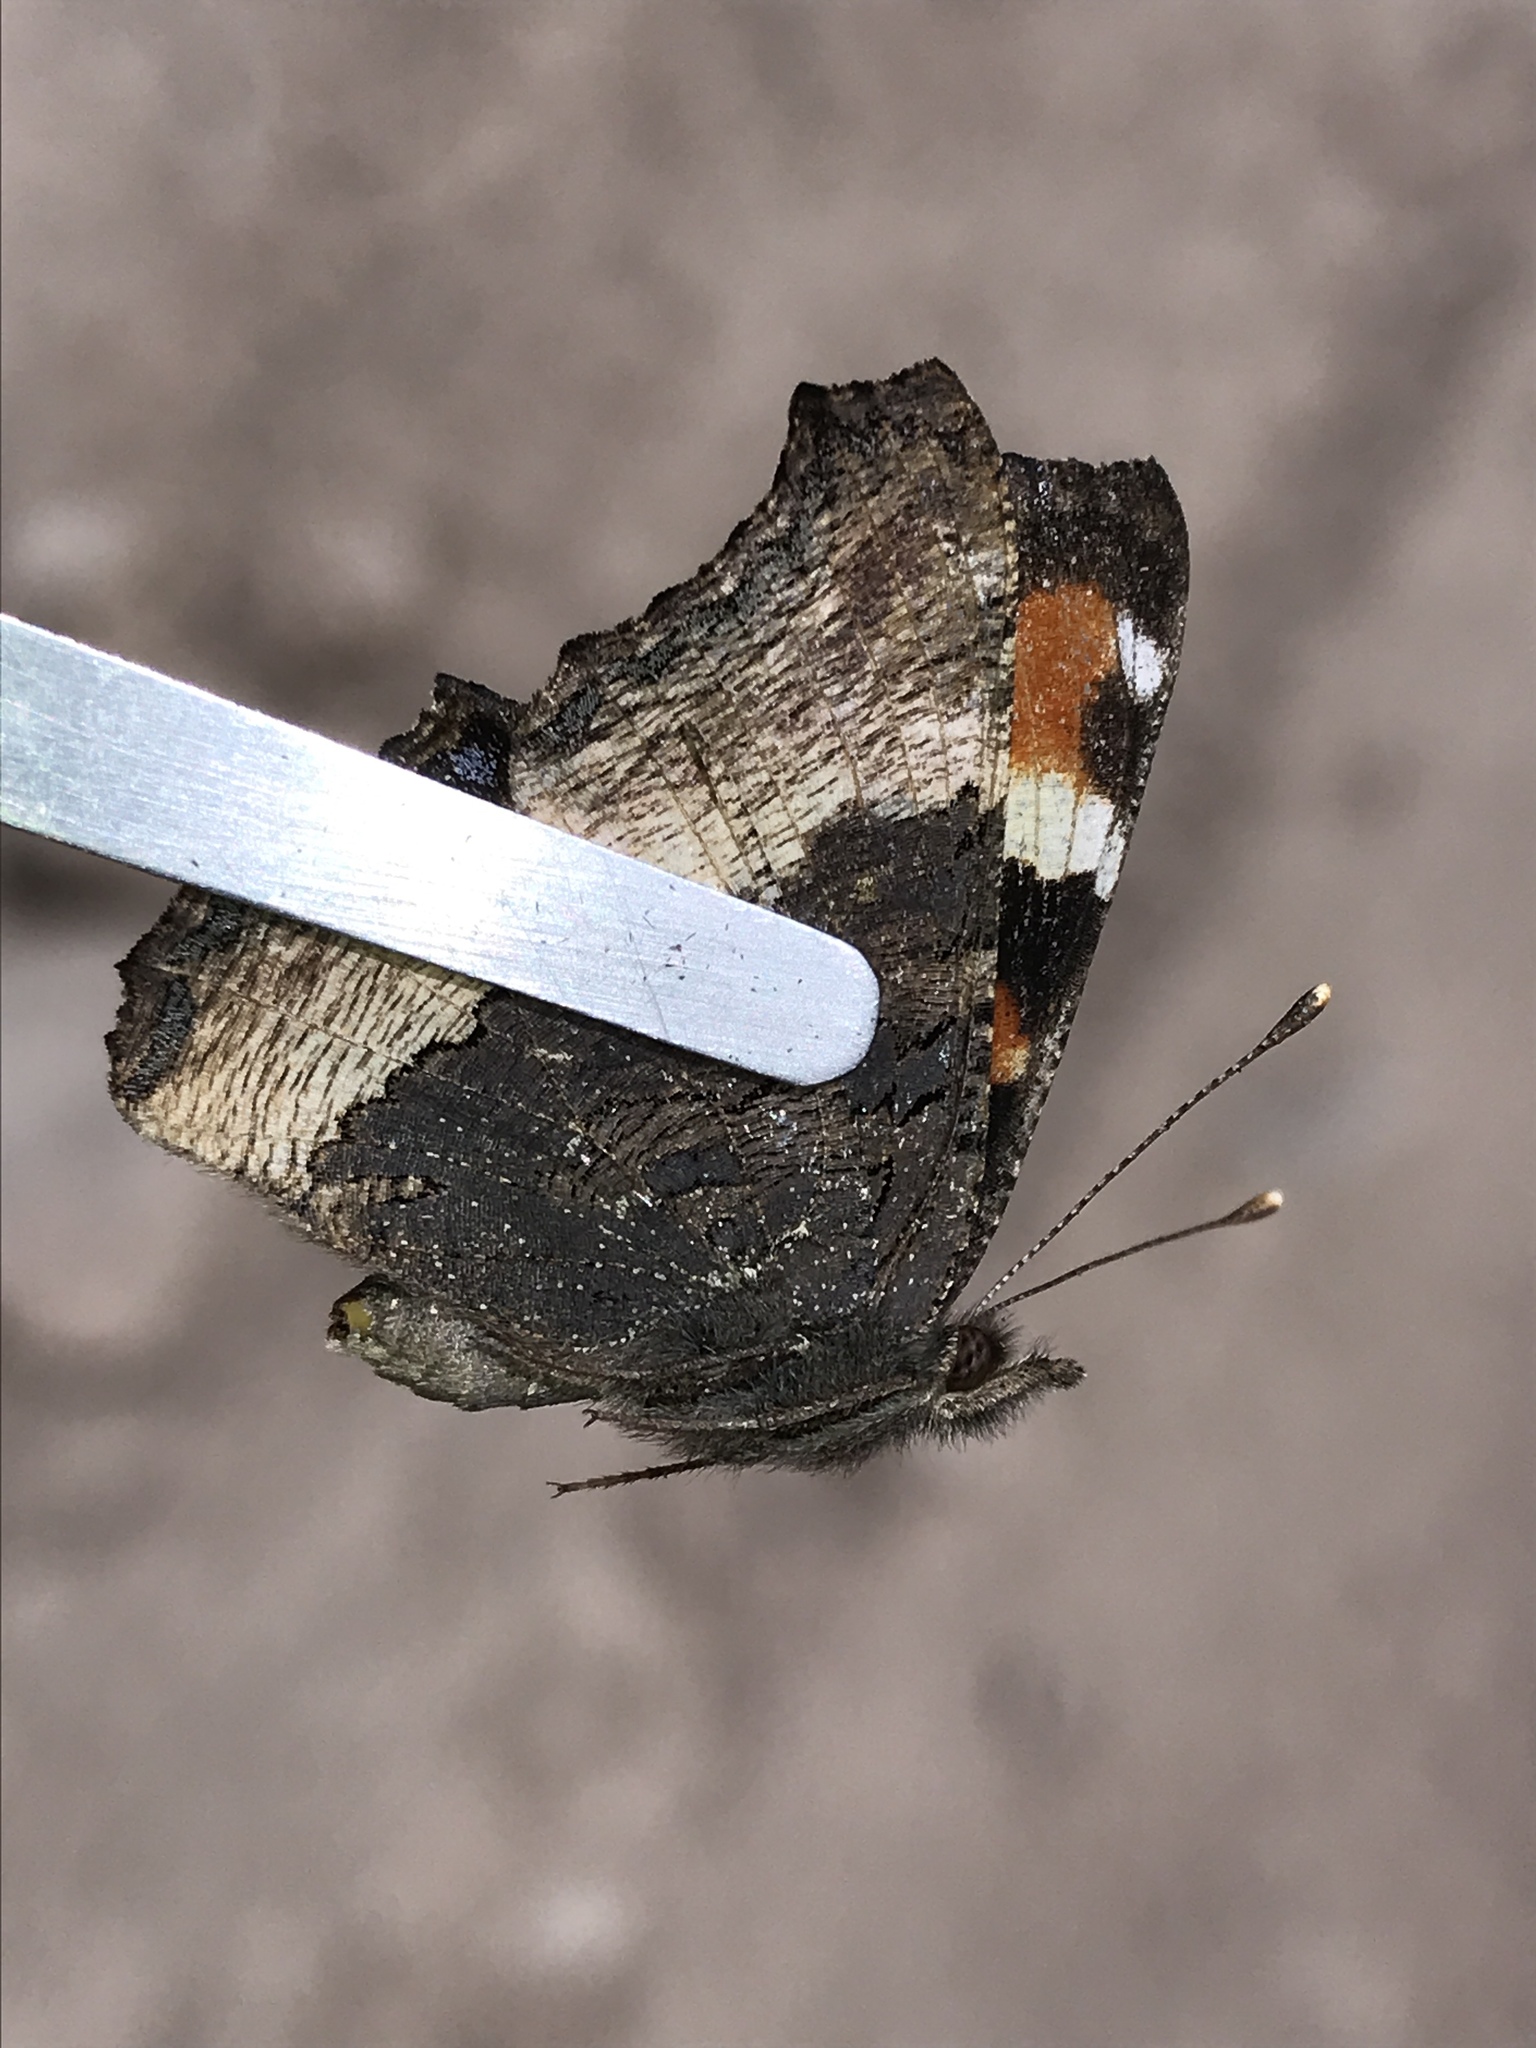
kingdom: Animalia
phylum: Arthropoda
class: Insecta
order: Lepidoptera
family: Nymphalidae
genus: Aglais
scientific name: Aglais milberti
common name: Milbert's tortoiseshell
